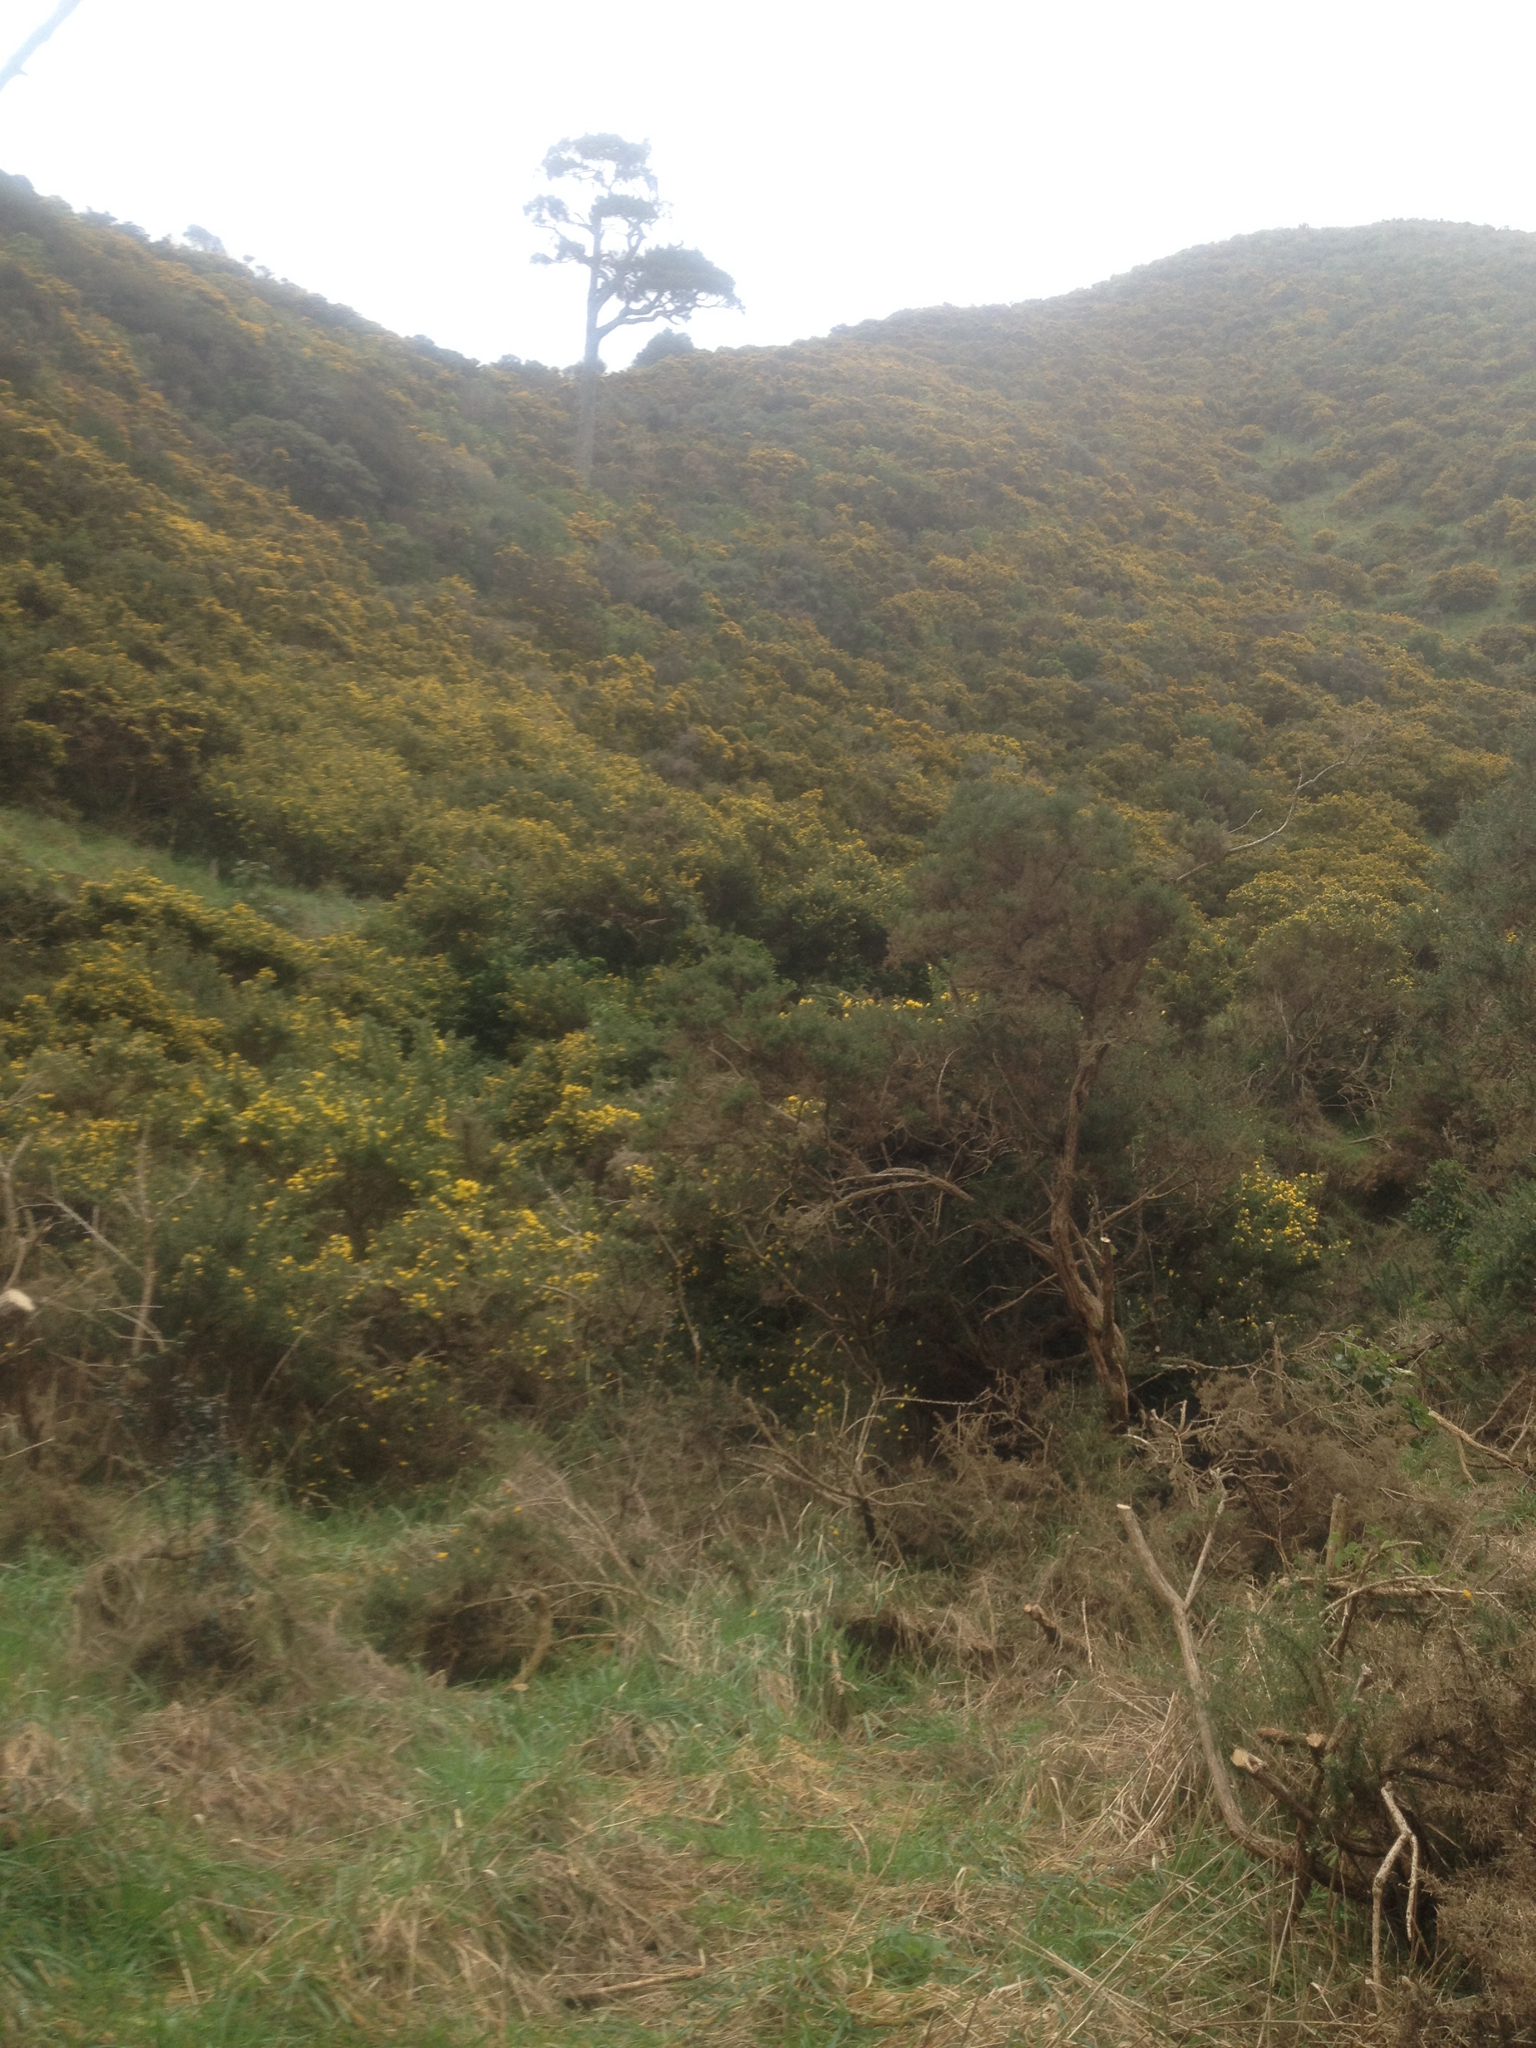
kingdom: Plantae
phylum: Tracheophyta
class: Pinopsida
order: Pinales
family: Podocarpaceae
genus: Dacrydium
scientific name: Dacrydium cupressinum
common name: Red pine
